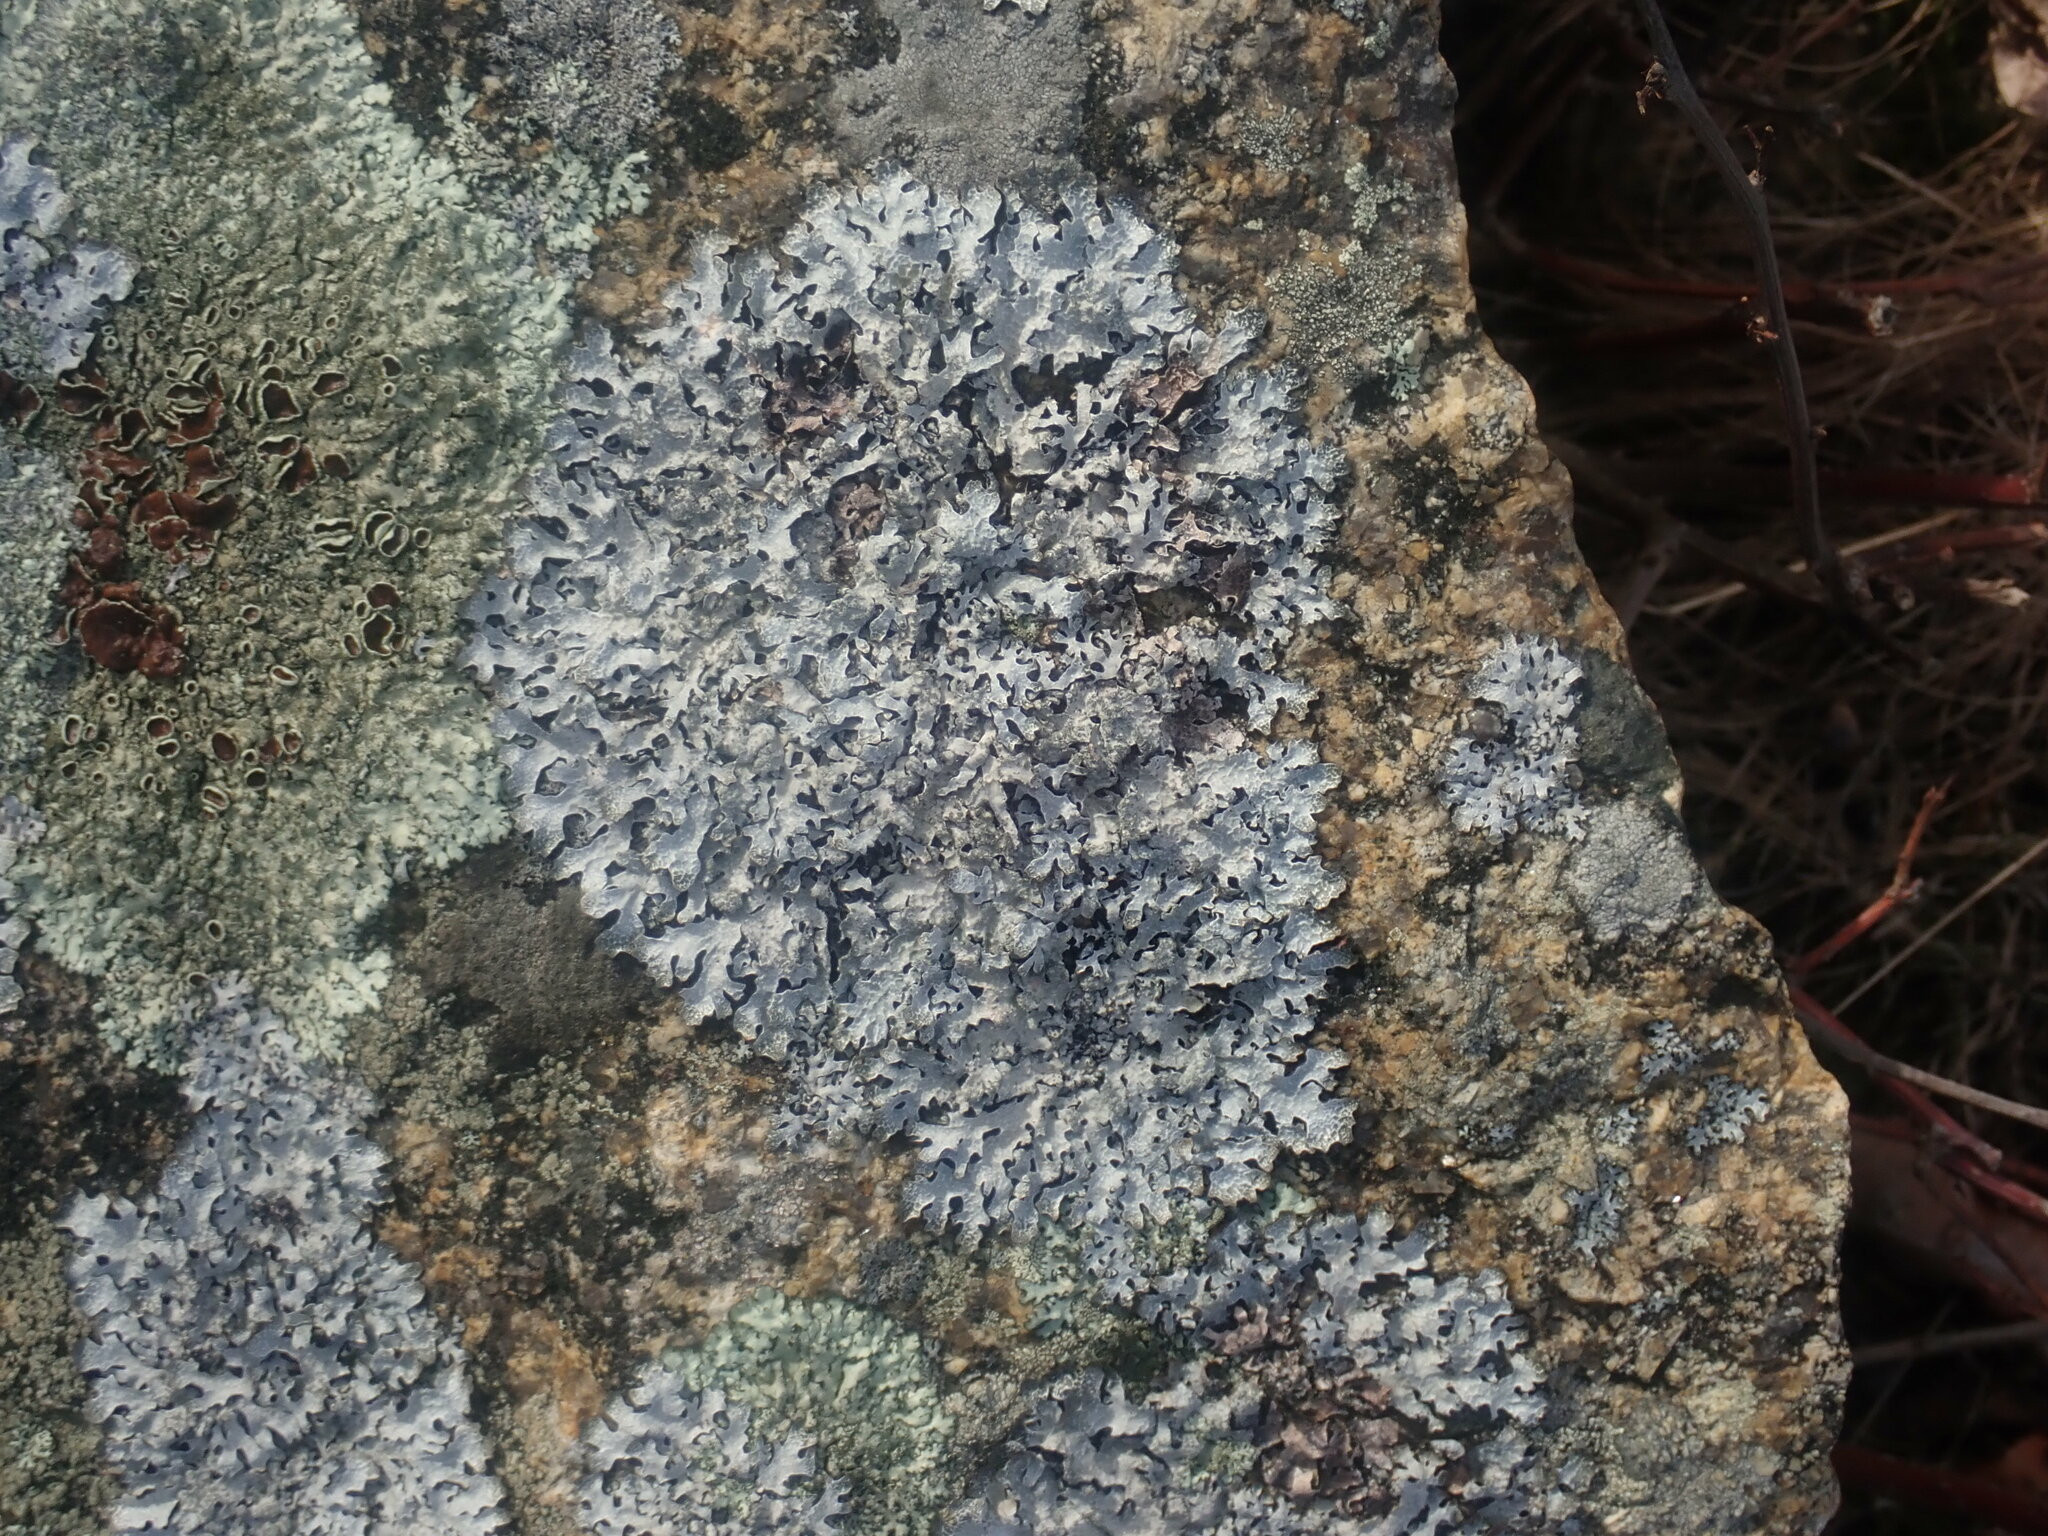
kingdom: Fungi
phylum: Ascomycota
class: Lecanoromycetes
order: Lecanorales
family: Parmeliaceae
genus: Parmelia
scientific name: Parmelia sulcata
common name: Netted shield lichen
